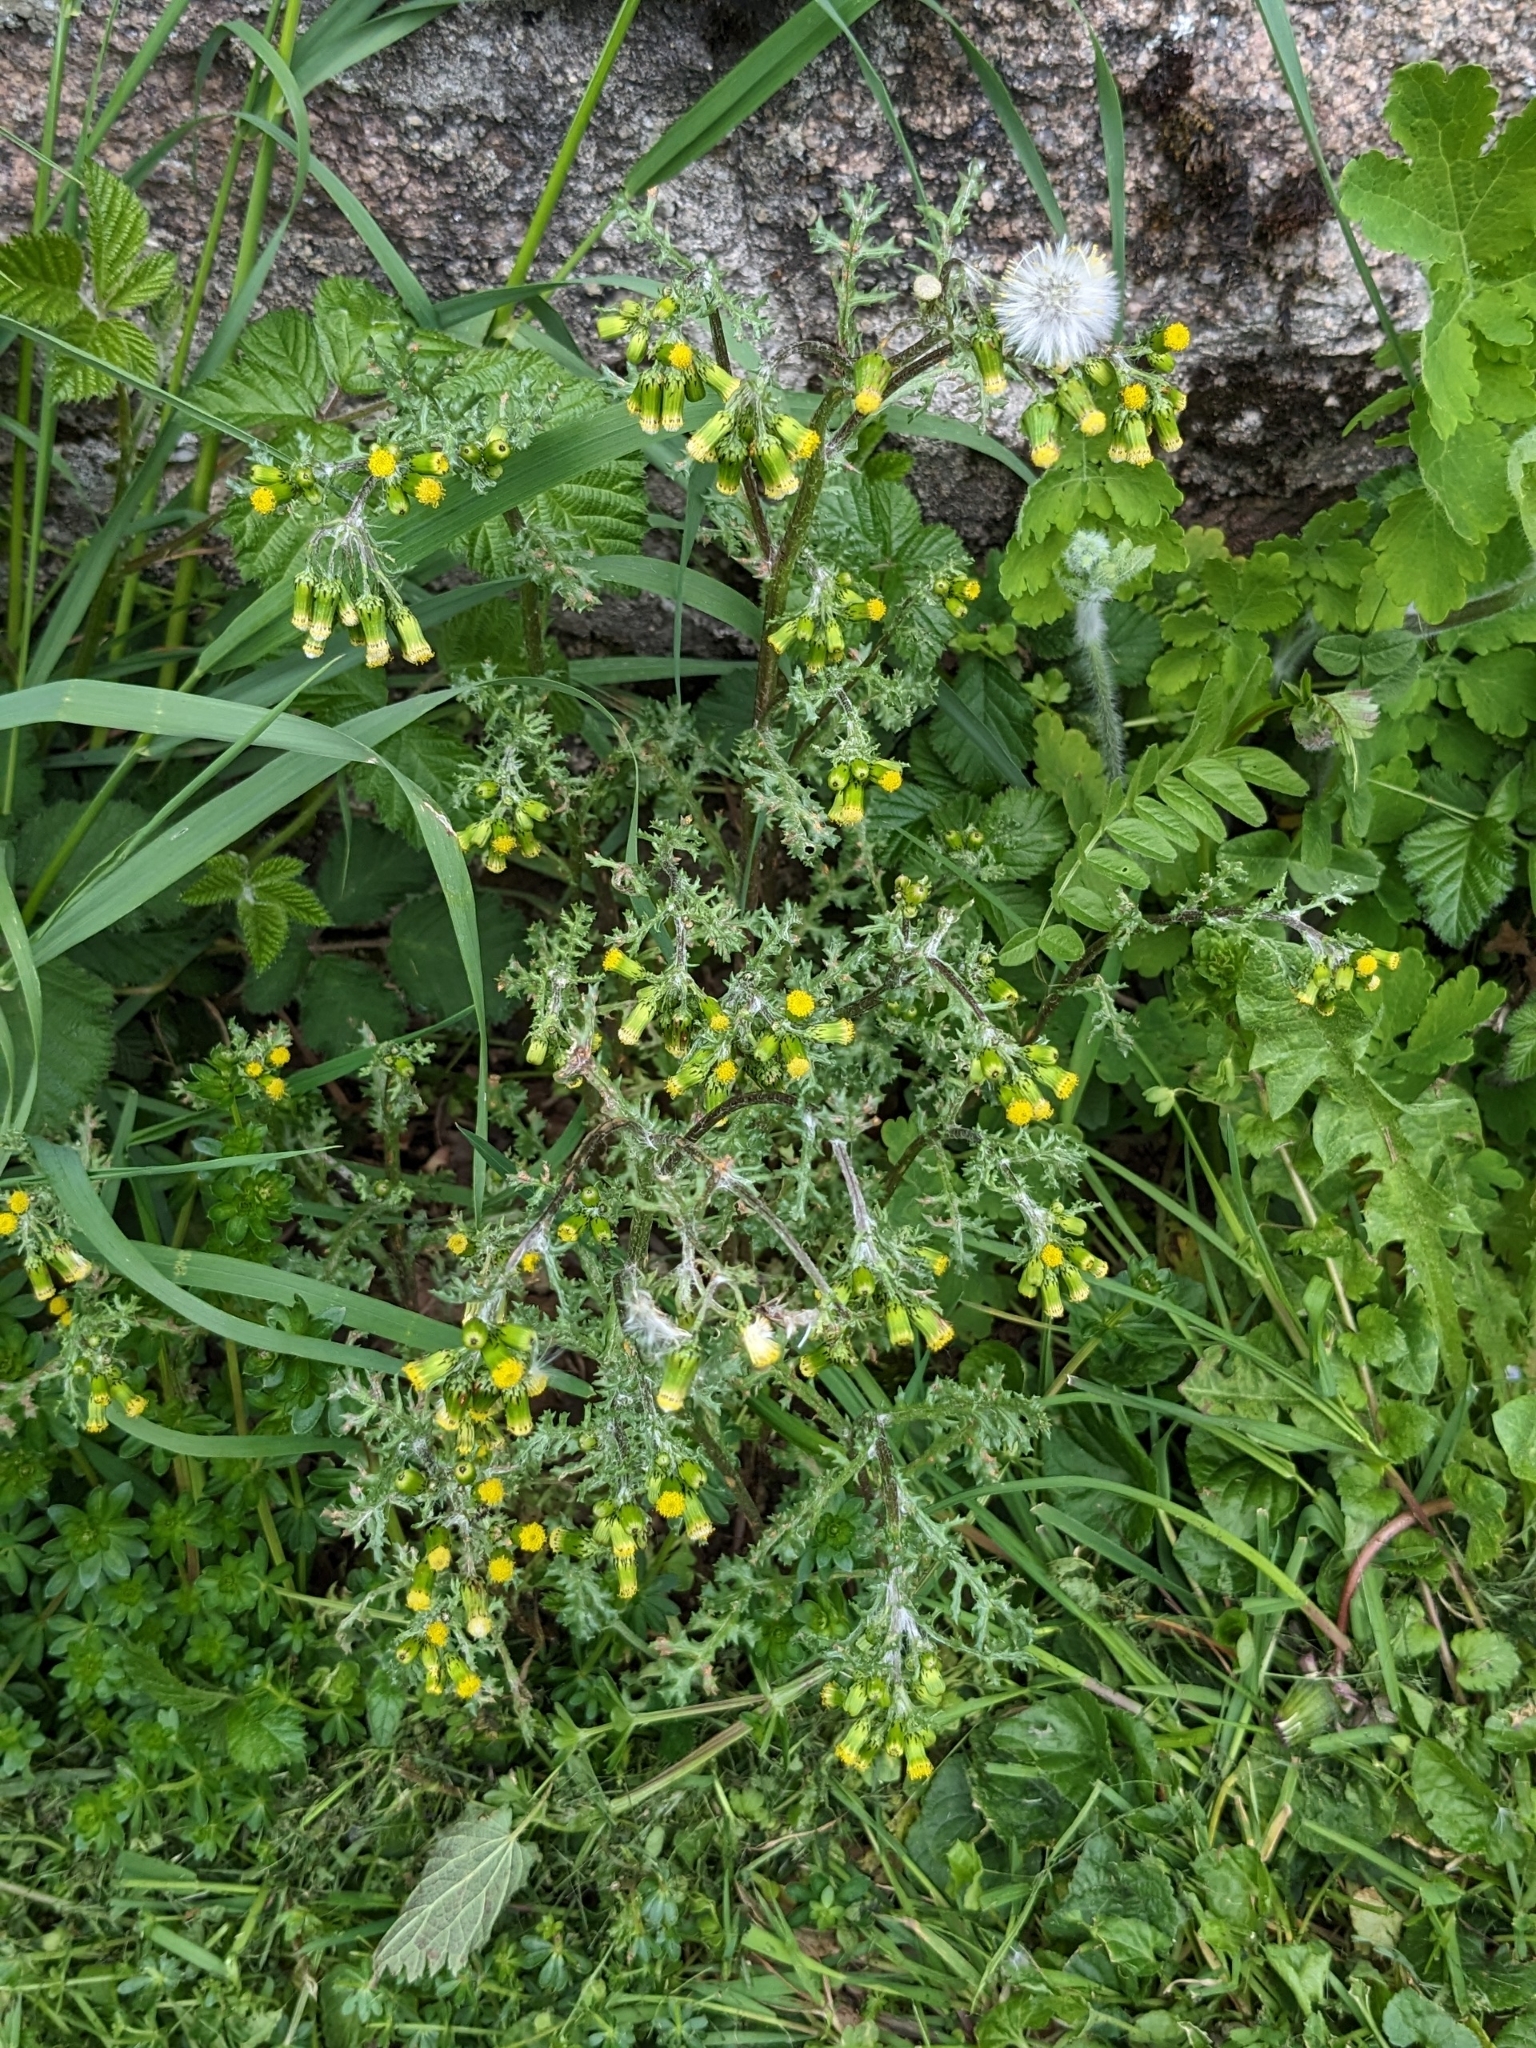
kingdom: Plantae
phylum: Tracheophyta
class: Magnoliopsida
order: Asterales
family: Asteraceae
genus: Senecio
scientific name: Senecio vulgaris
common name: Old-man-in-the-spring
